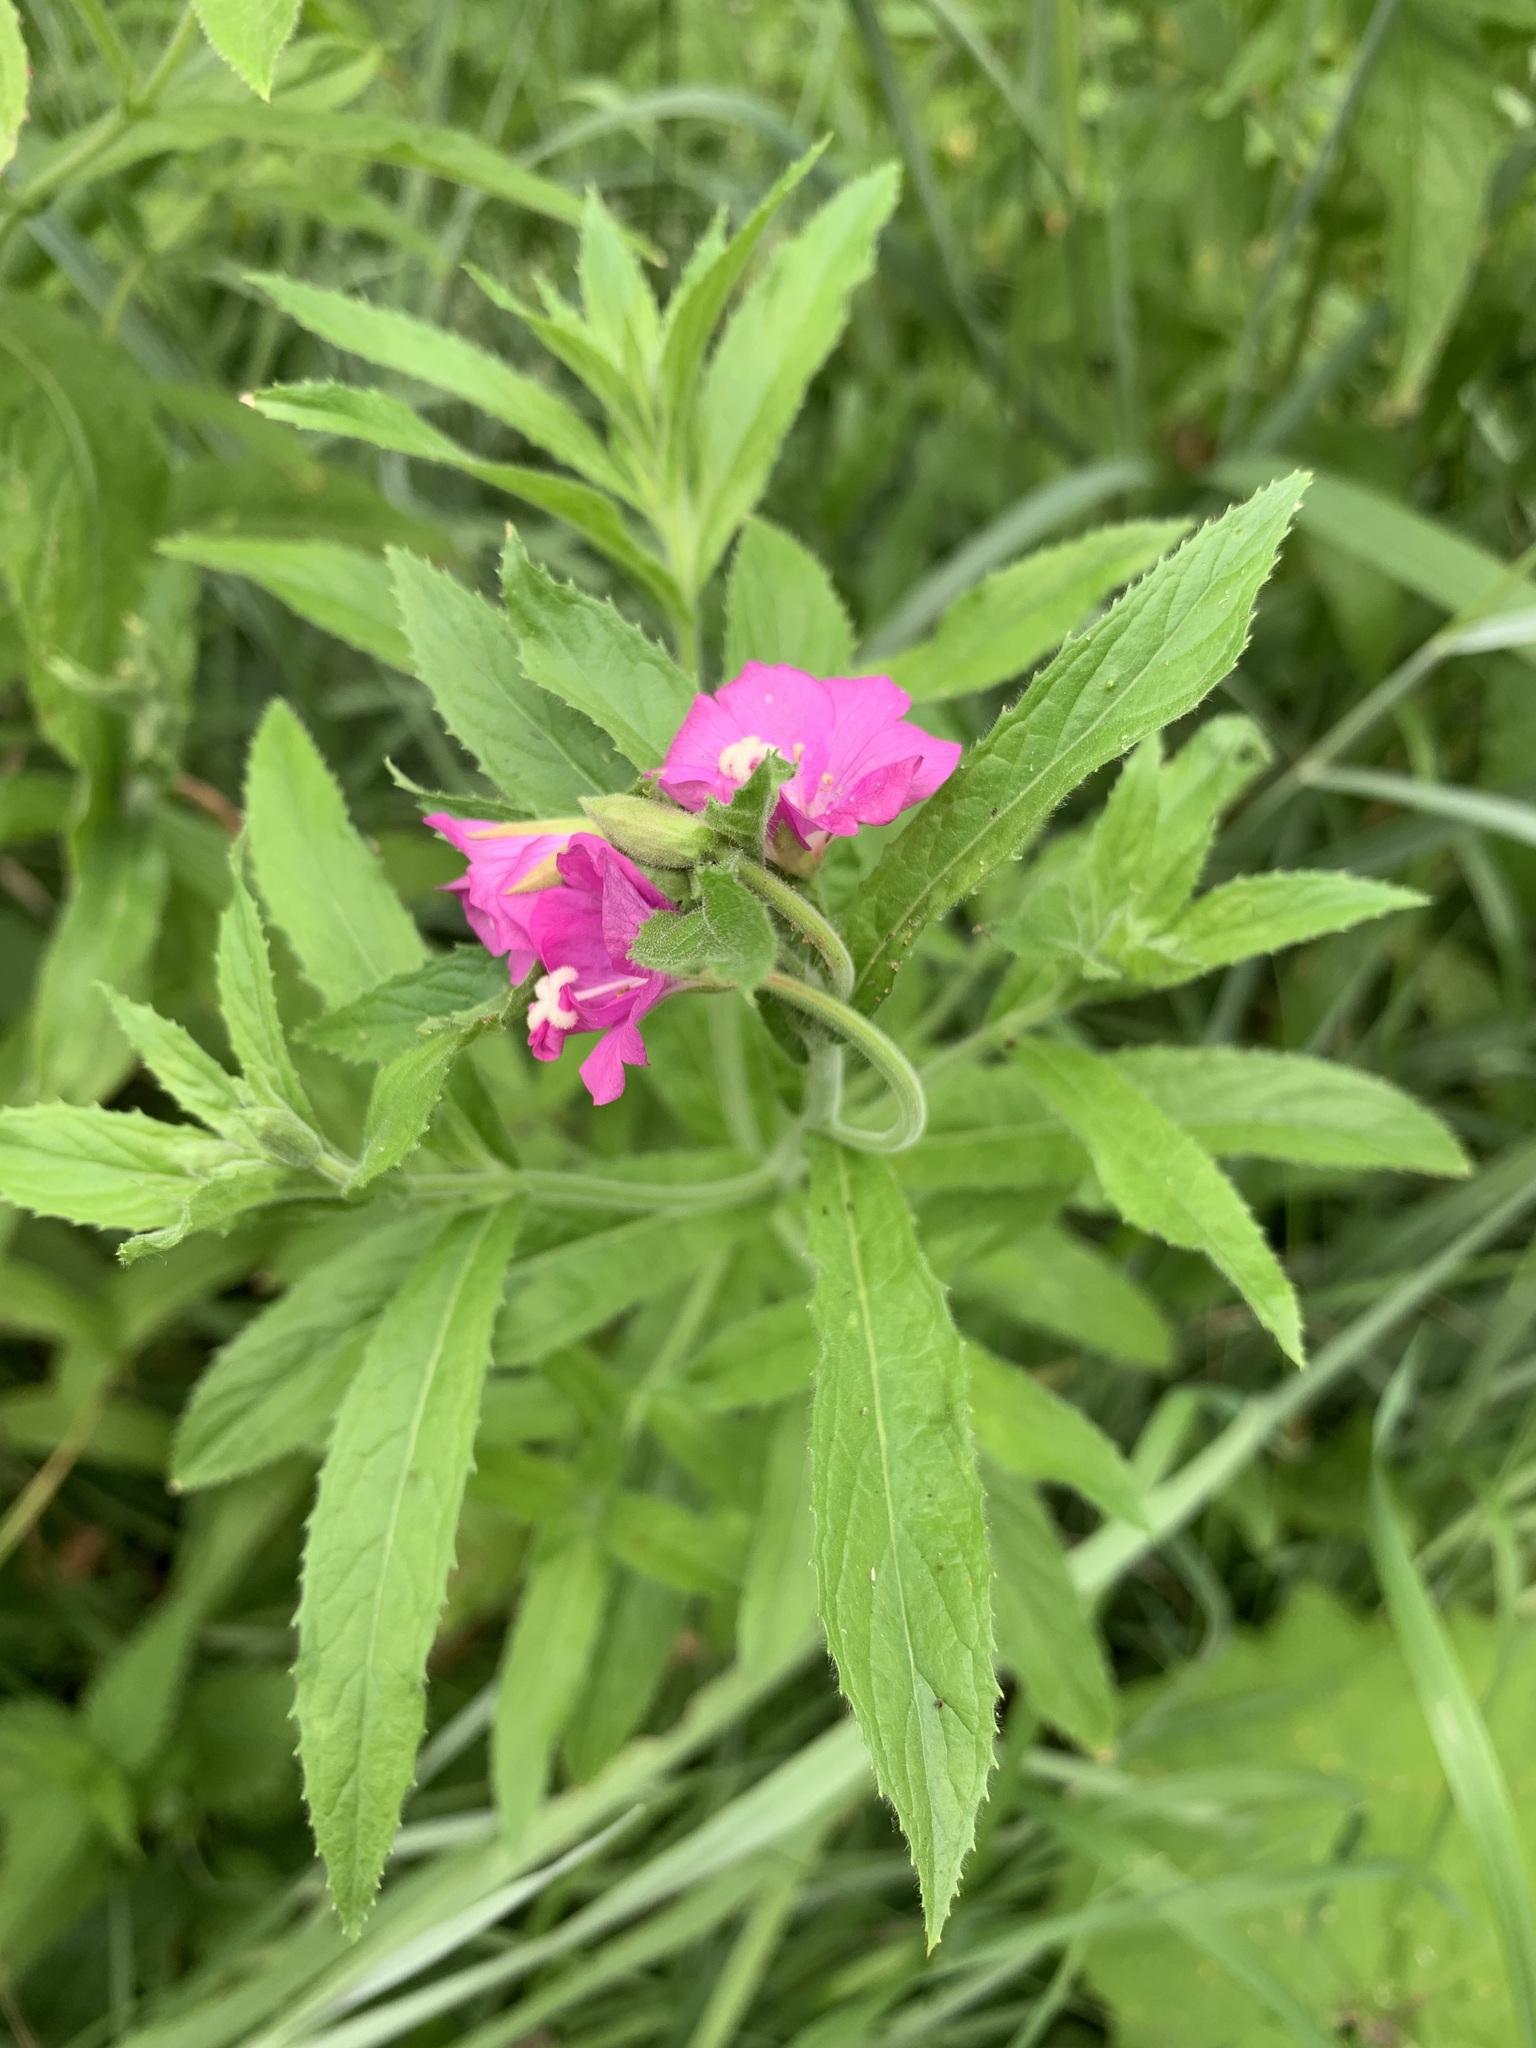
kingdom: Plantae
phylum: Tracheophyta
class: Magnoliopsida
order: Myrtales
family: Onagraceae
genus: Epilobium
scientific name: Epilobium hirsutum
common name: Great willowherb
